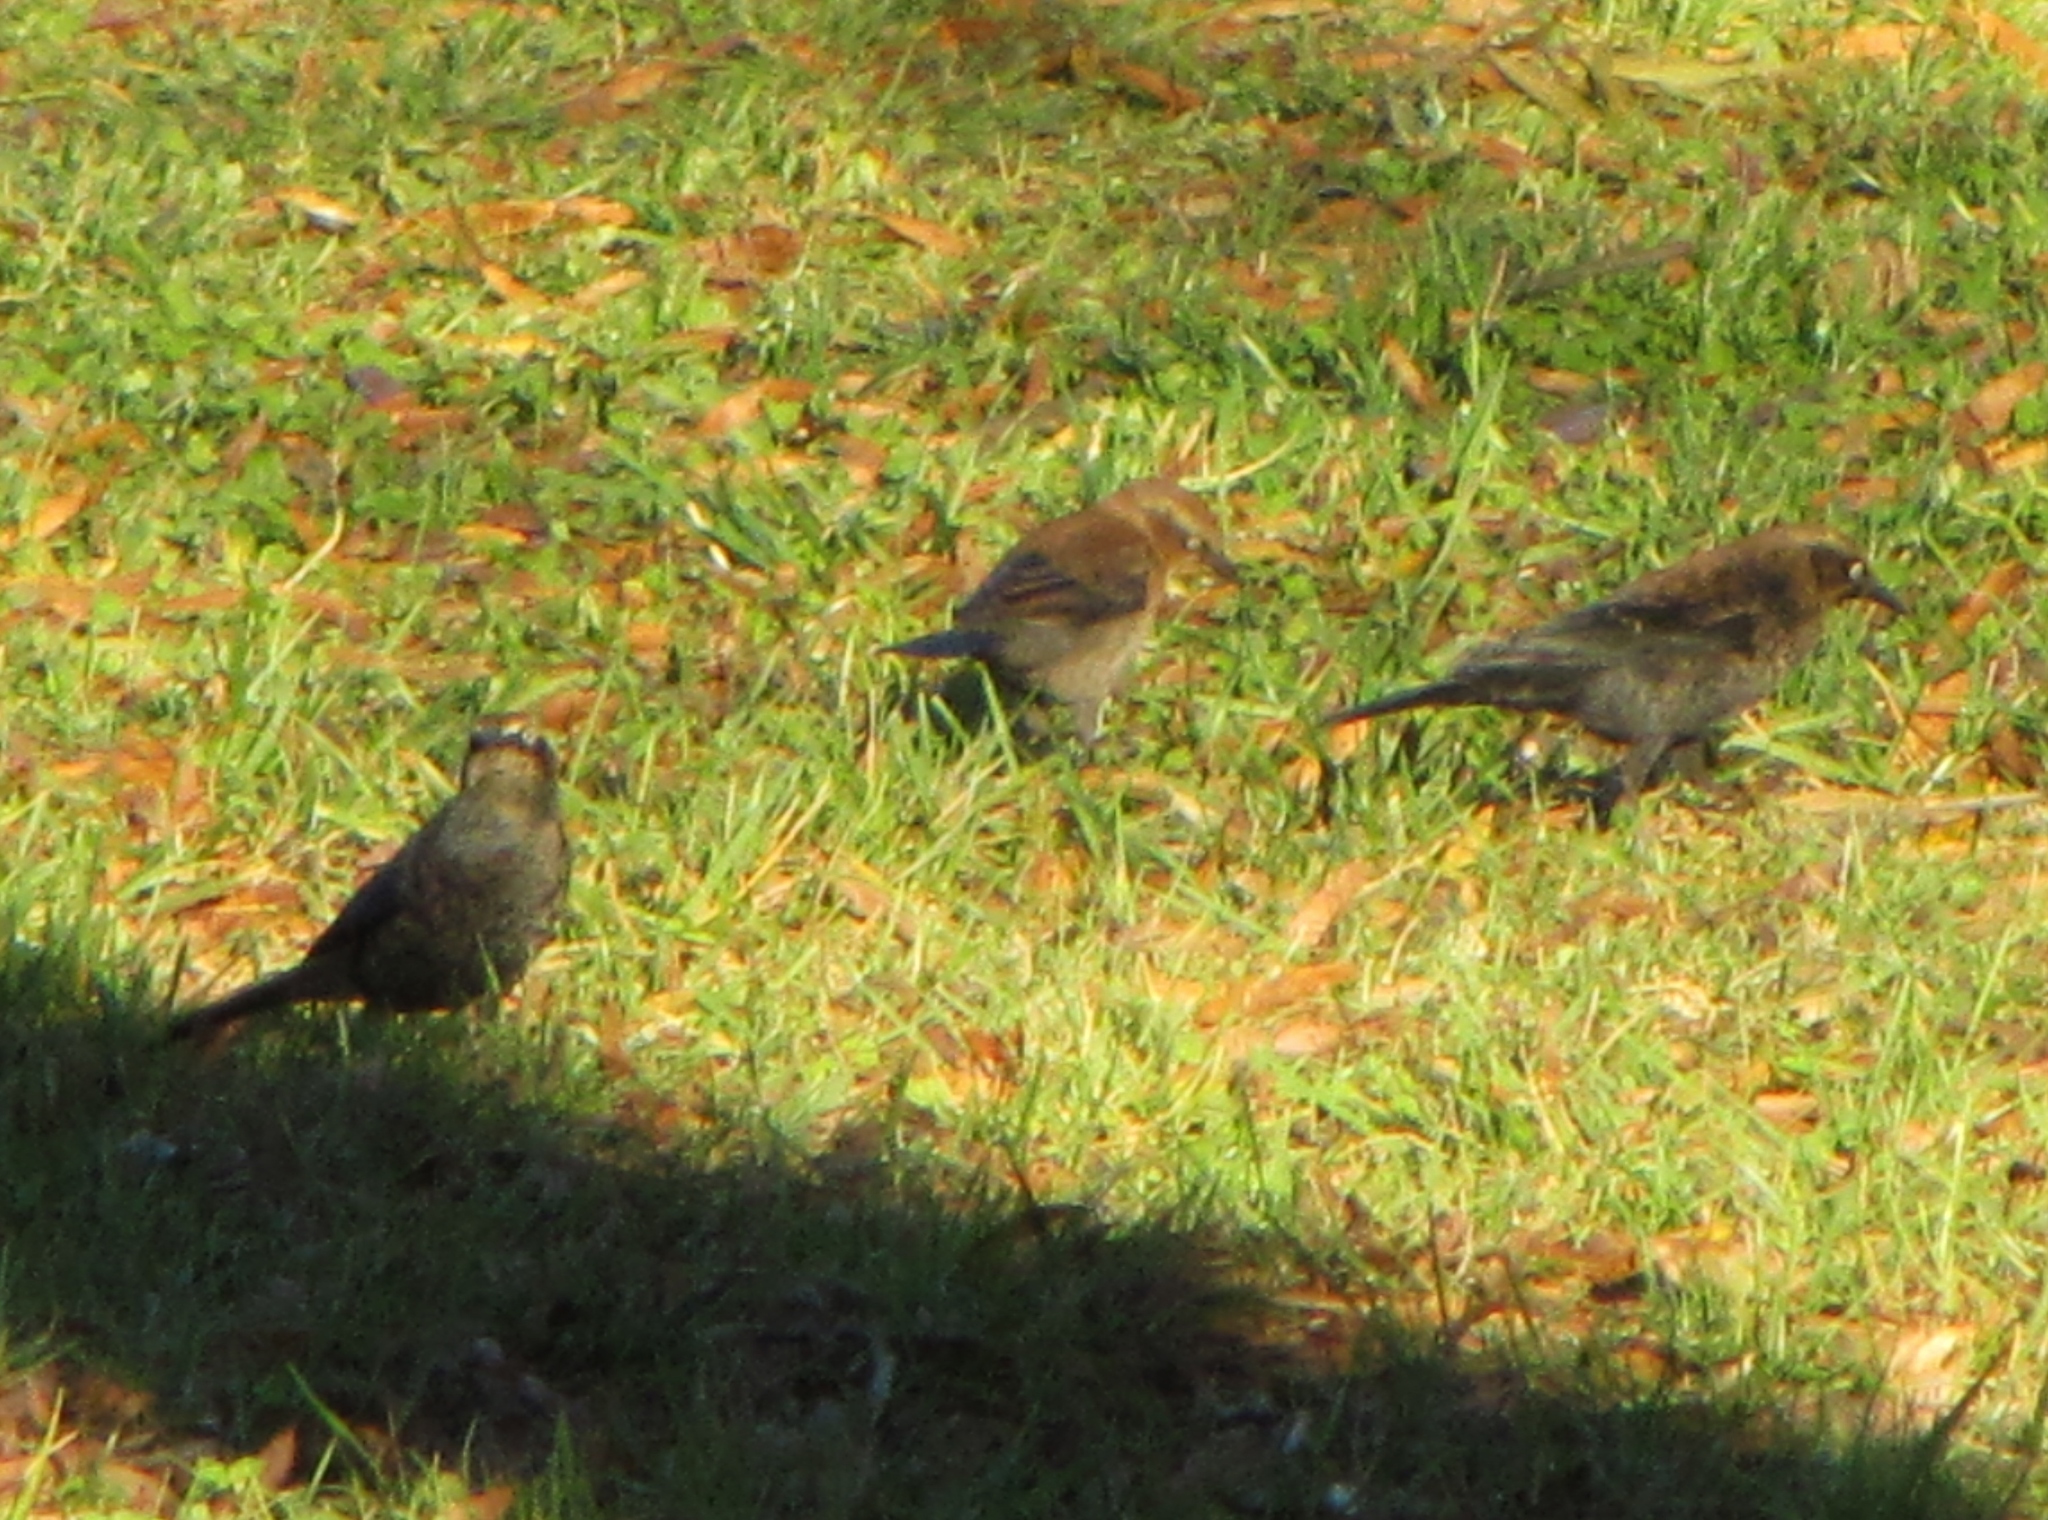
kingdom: Animalia
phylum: Chordata
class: Aves
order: Passeriformes
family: Icteridae
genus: Euphagus
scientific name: Euphagus carolinus
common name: Rusty blackbird
